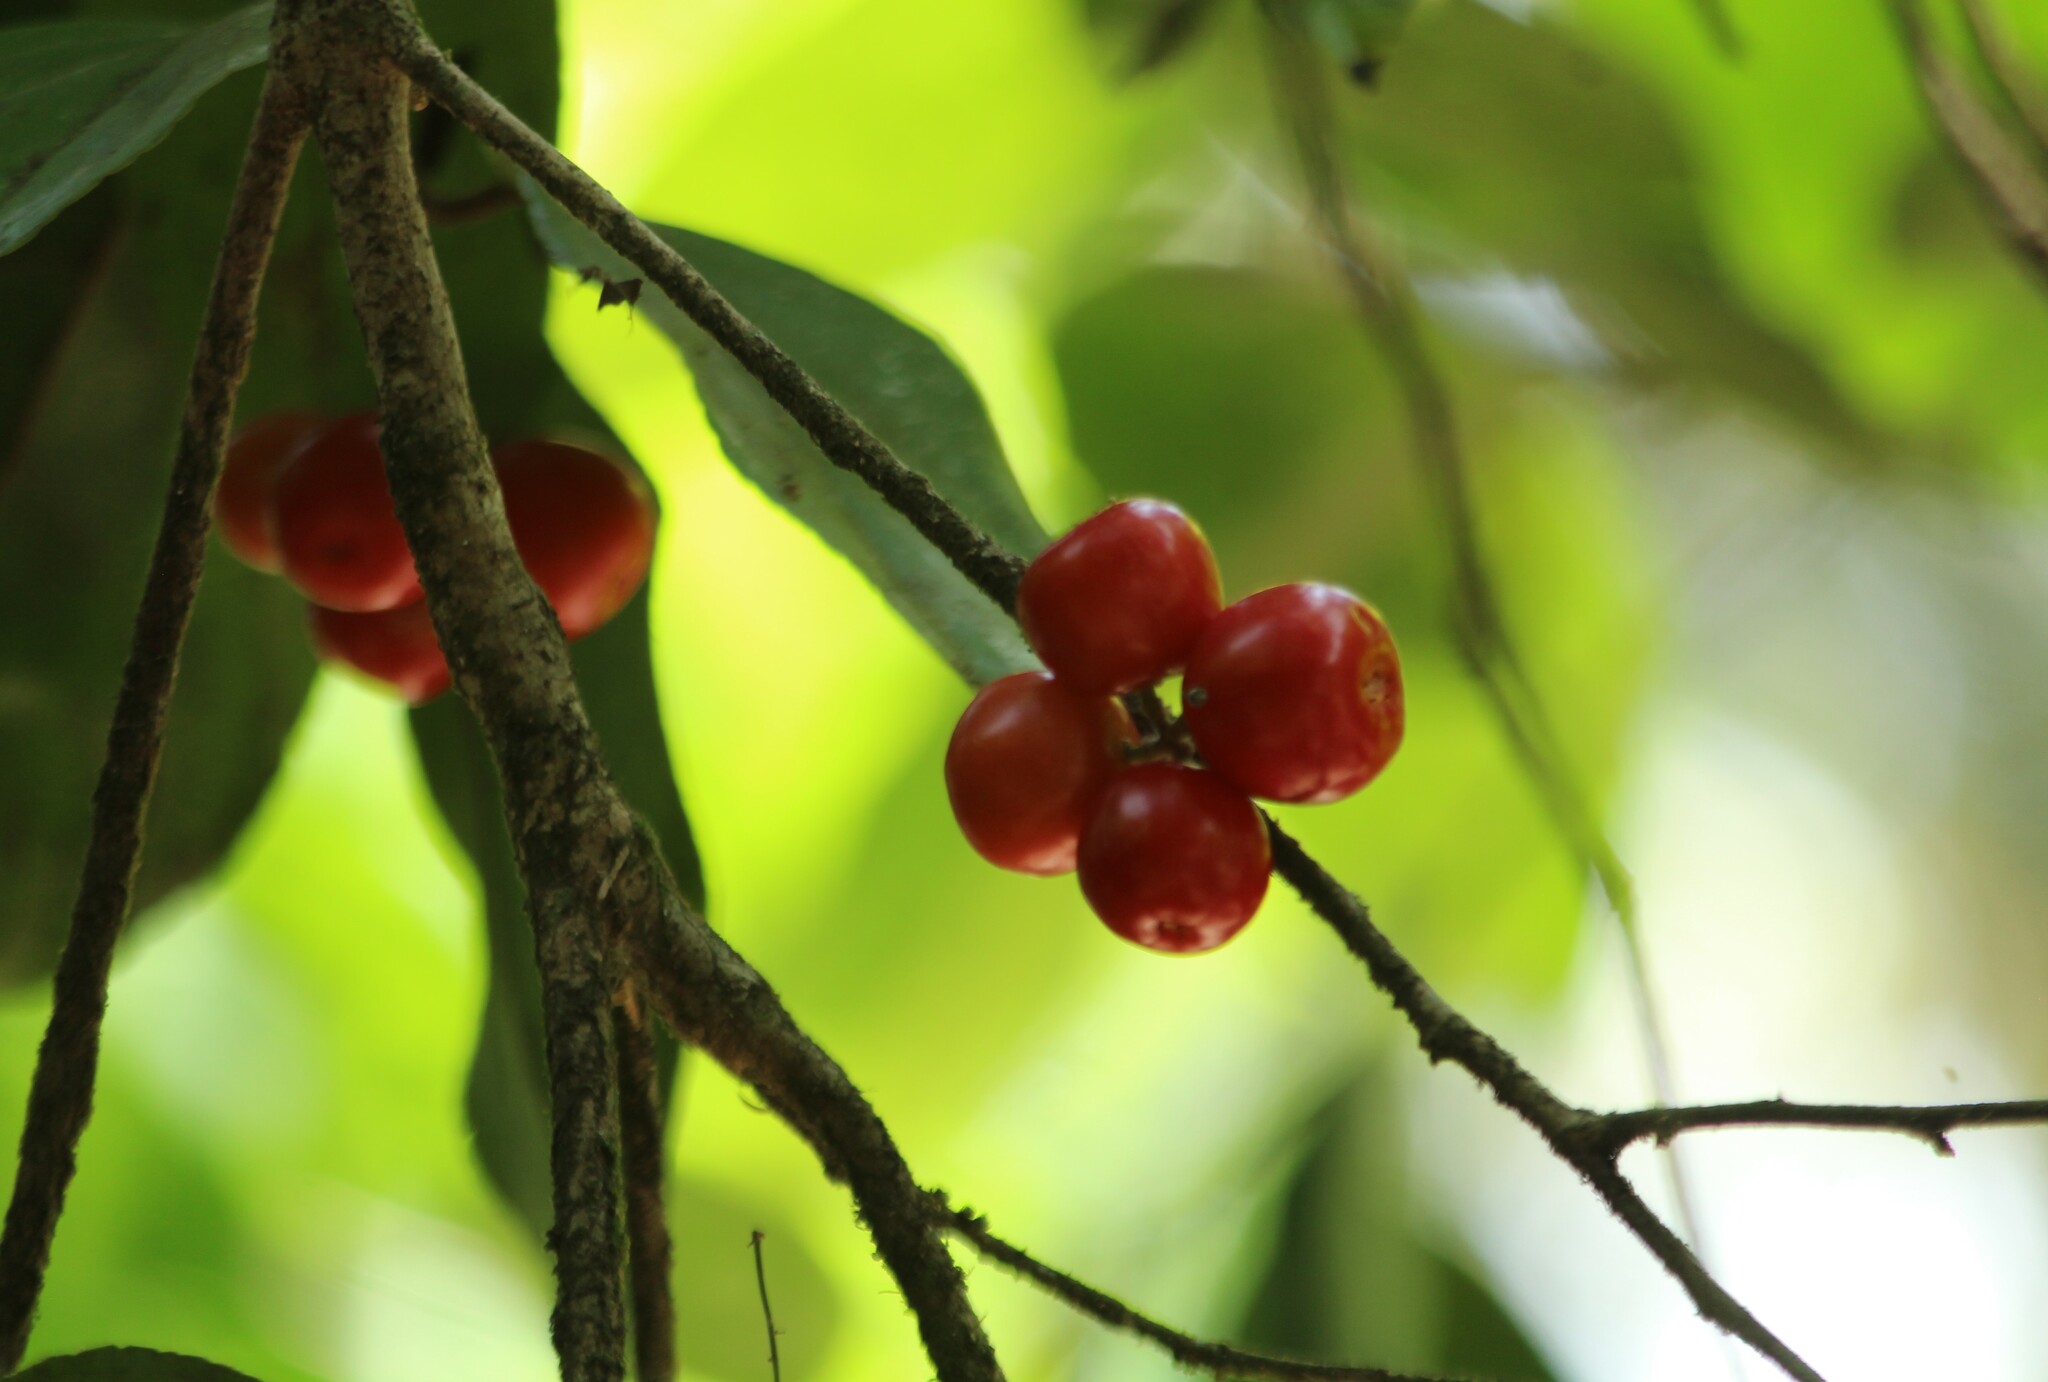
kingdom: Plantae
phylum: Tracheophyta
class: Magnoliopsida
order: Malpighiales
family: Salicaceae
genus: Flacourtia
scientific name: Flacourtia montana
